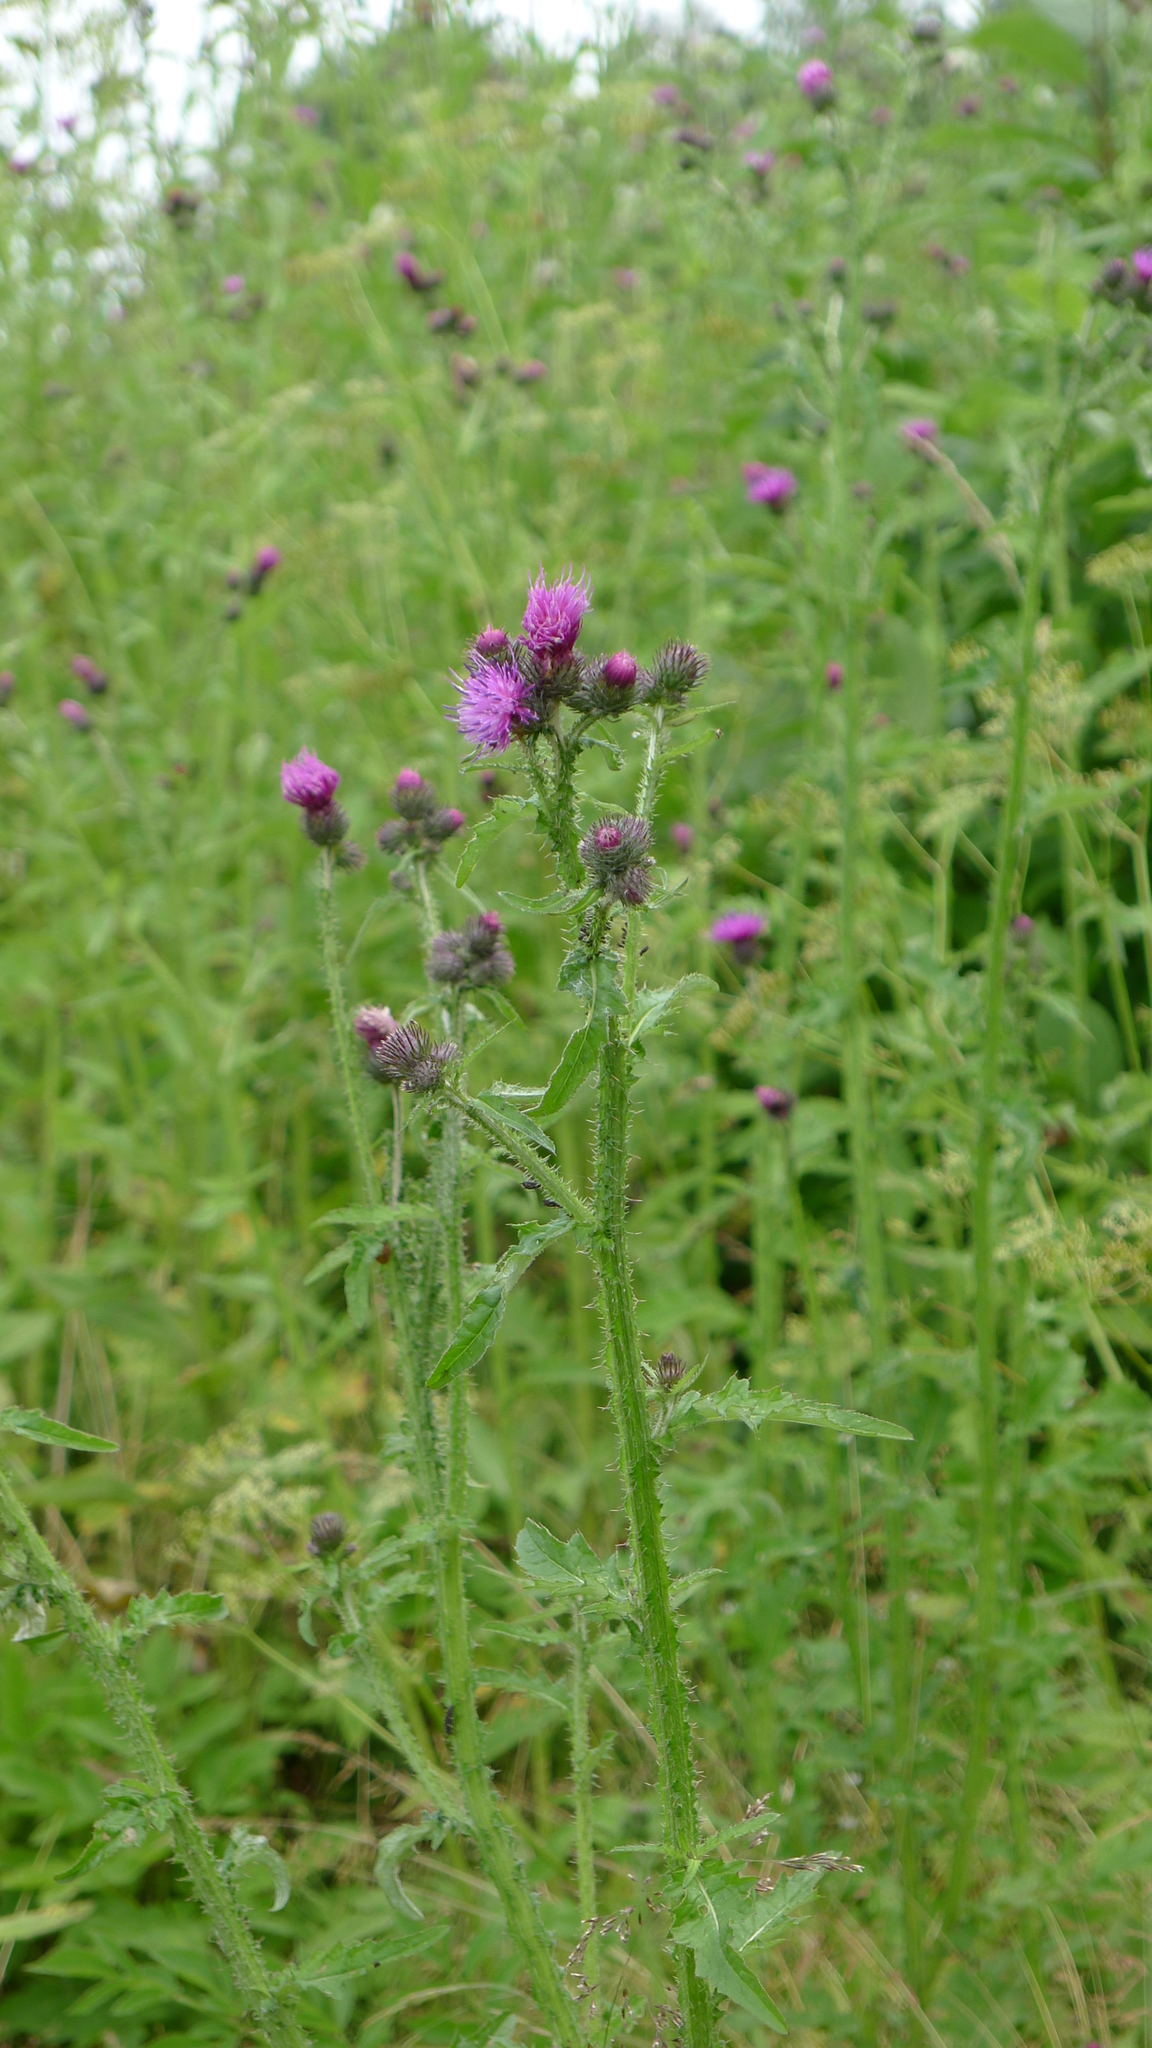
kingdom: Plantae
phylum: Tracheophyta
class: Magnoliopsida
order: Asterales
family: Asteraceae
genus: Carduus
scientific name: Carduus crispus
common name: Welted thistle
